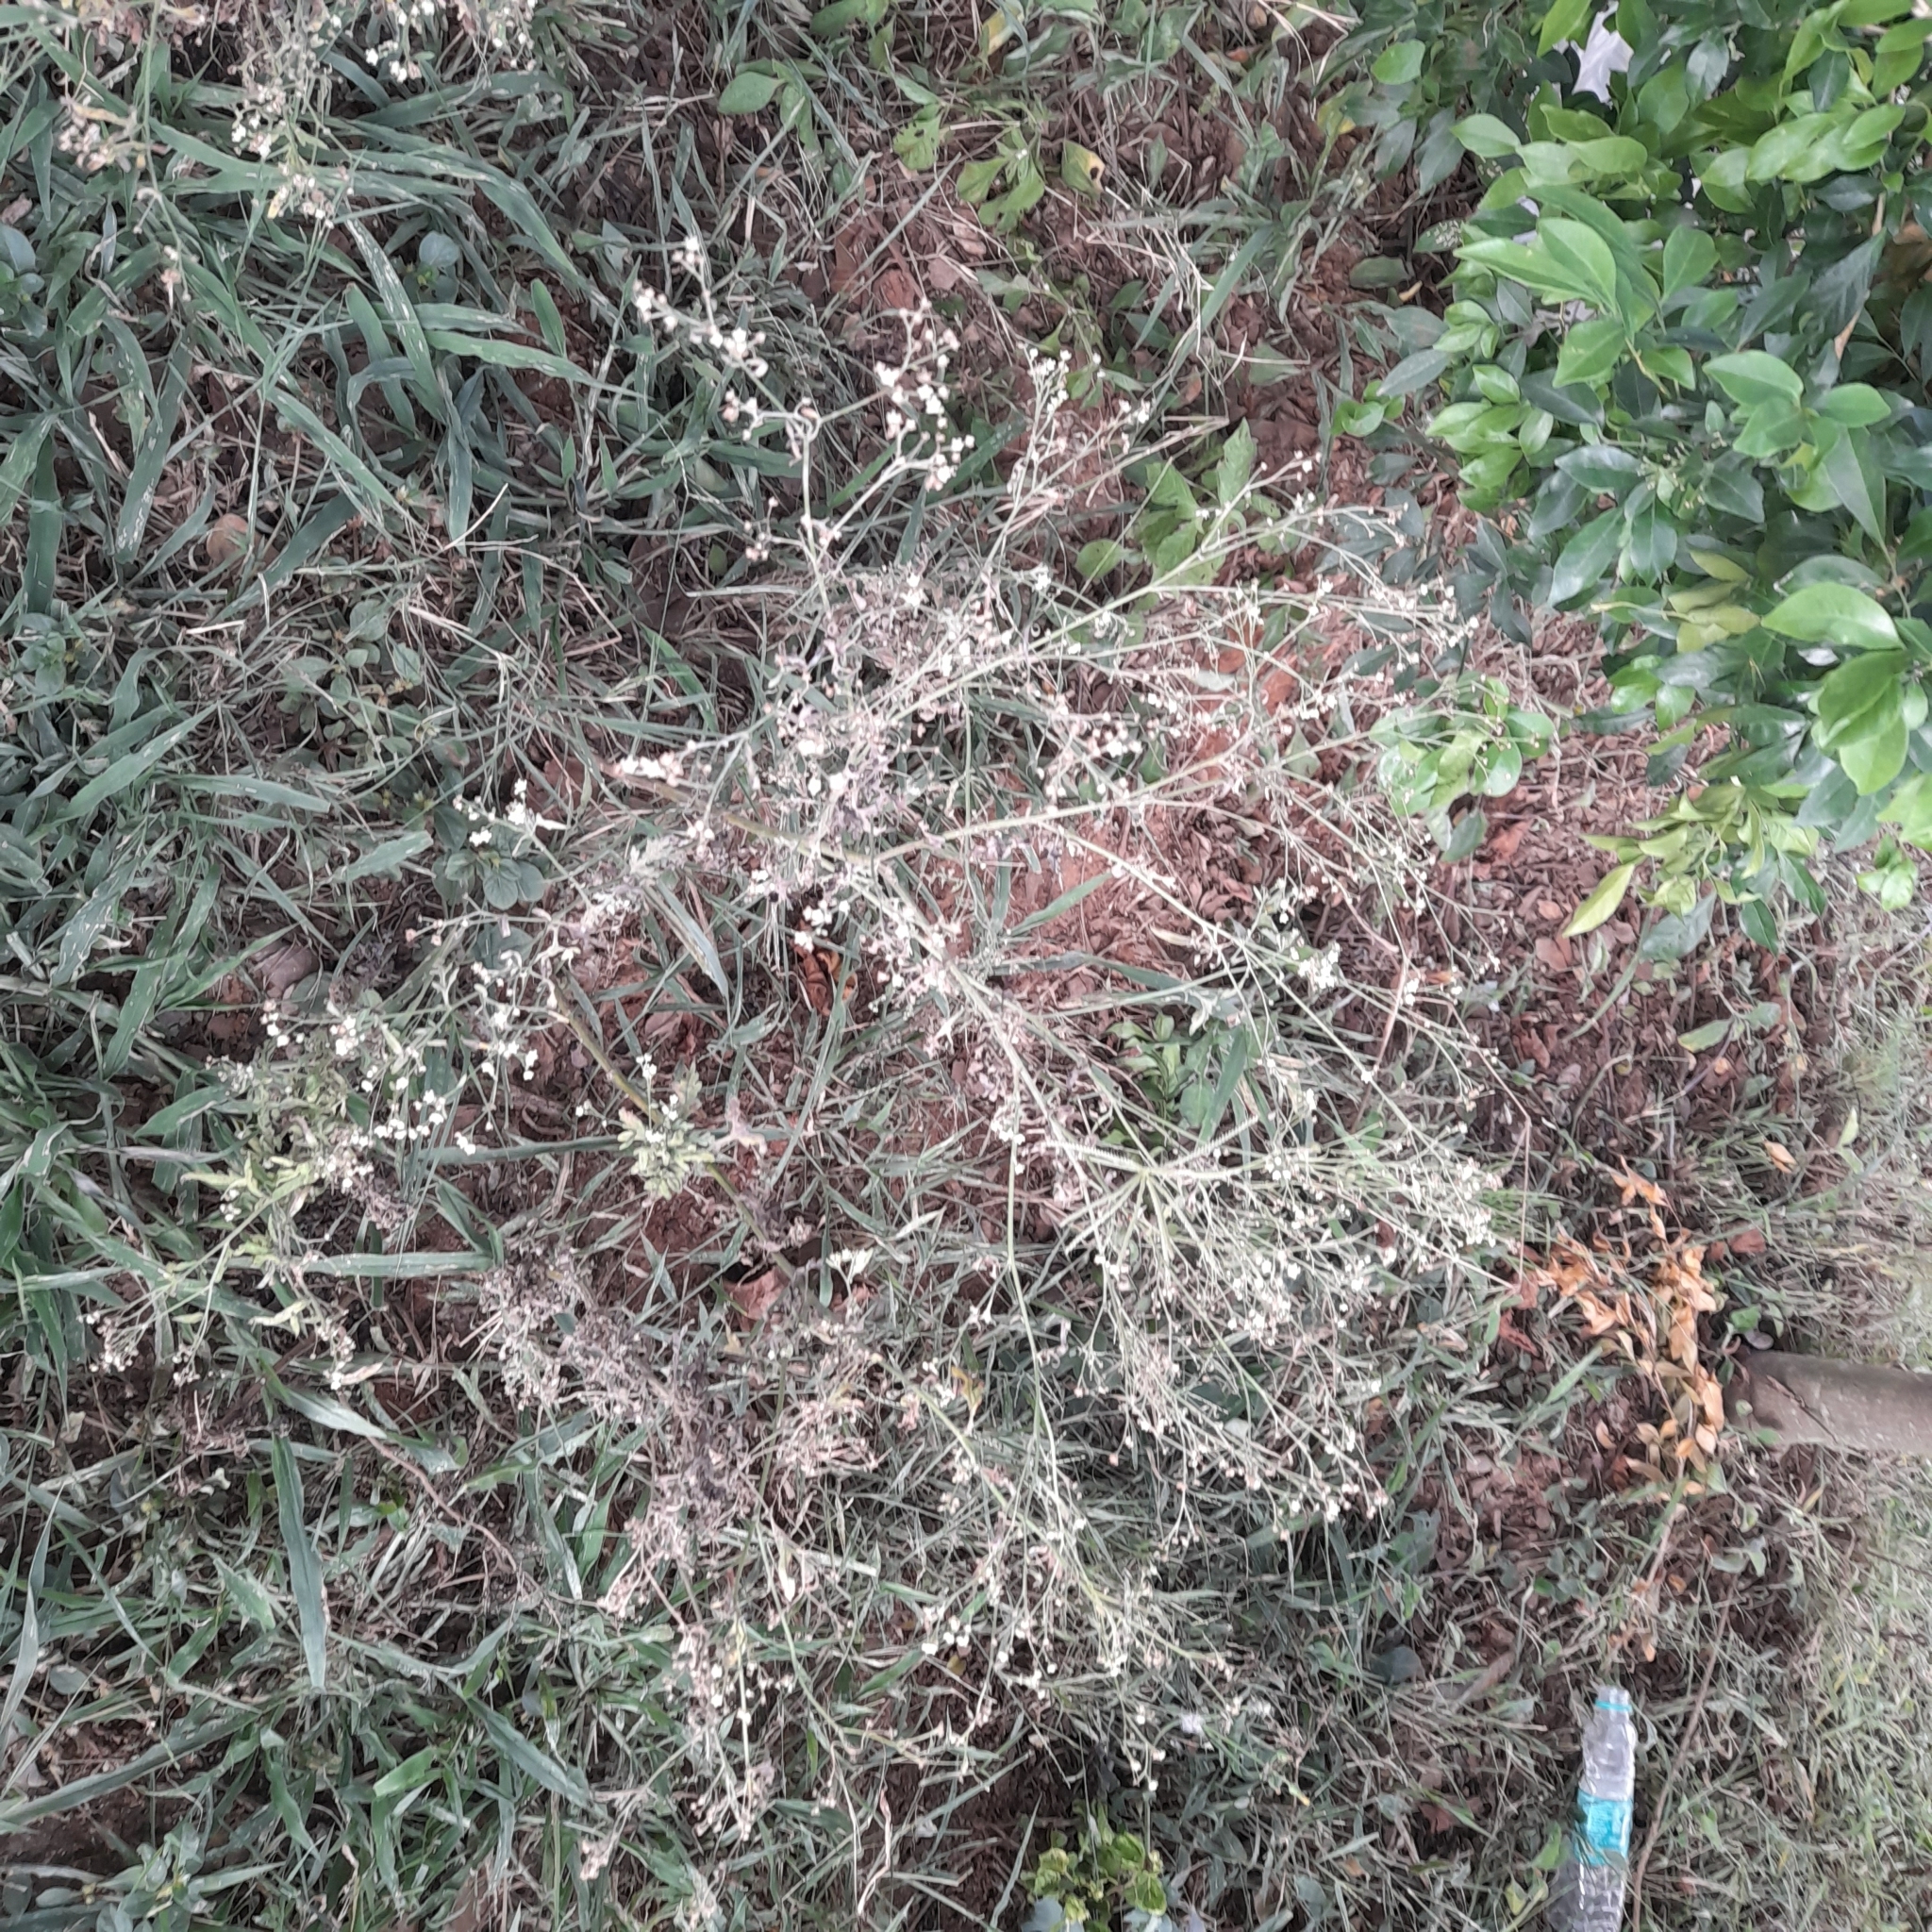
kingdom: Plantae
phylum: Tracheophyta
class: Magnoliopsida
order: Asterales
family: Asteraceae
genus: Parthenium
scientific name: Parthenium hysterophorus
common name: Santa maria feverfew
